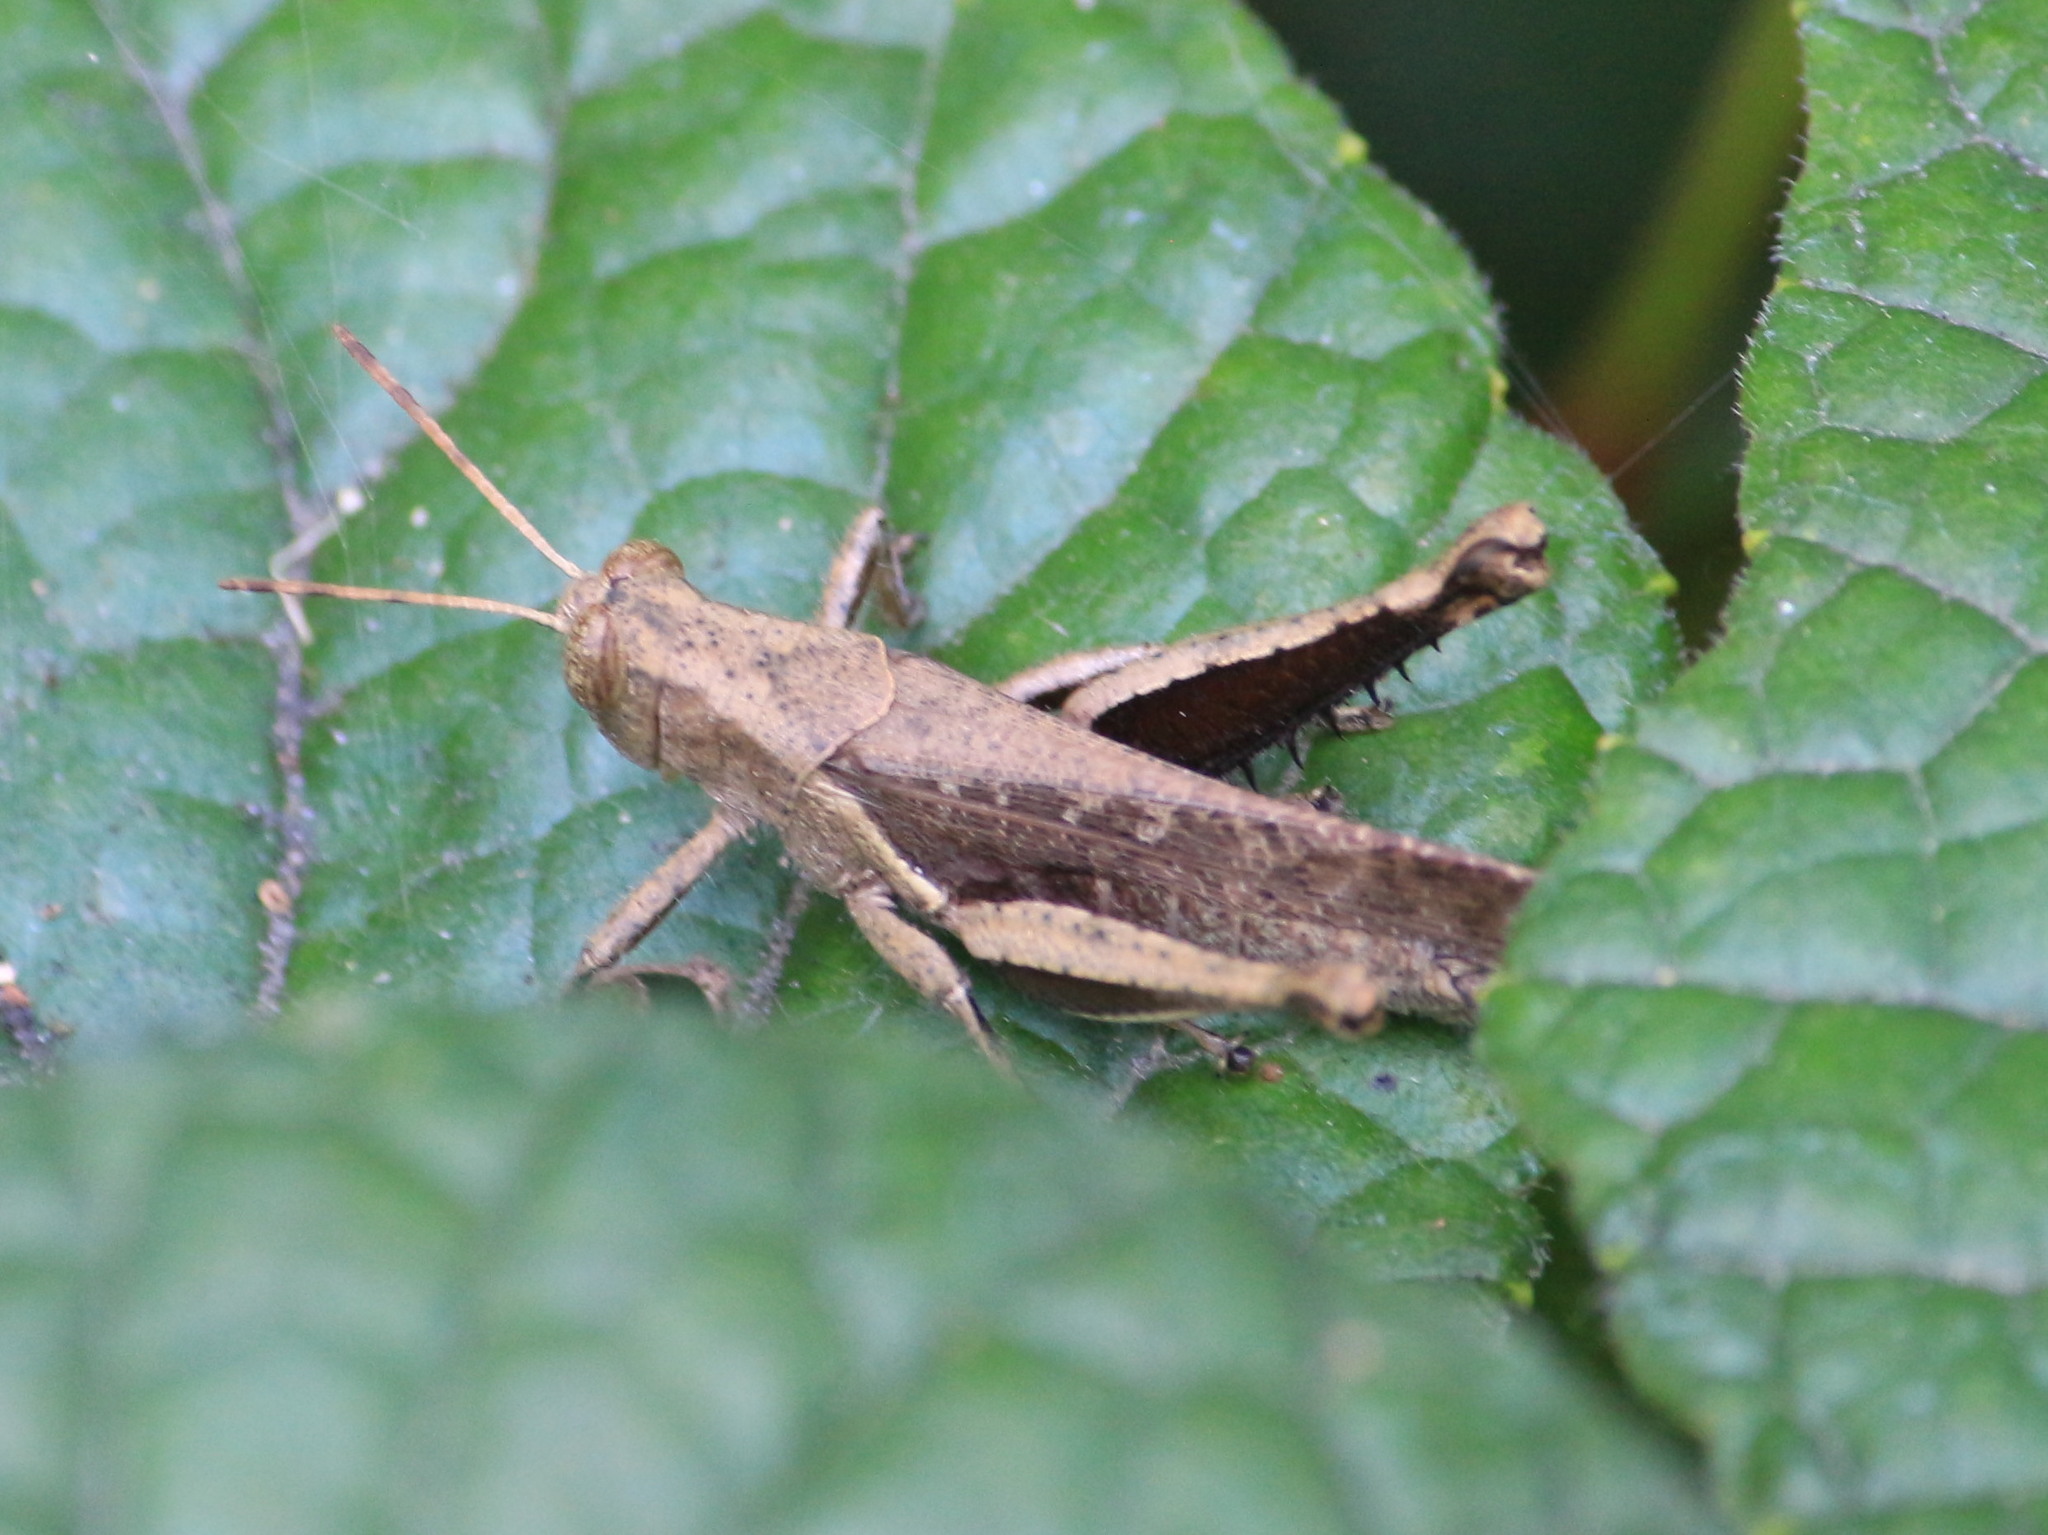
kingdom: Animalia
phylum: Arthropoda
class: Insecta
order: Orthoptera
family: Acrididae
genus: Abracris
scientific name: Abracris flavolineata
